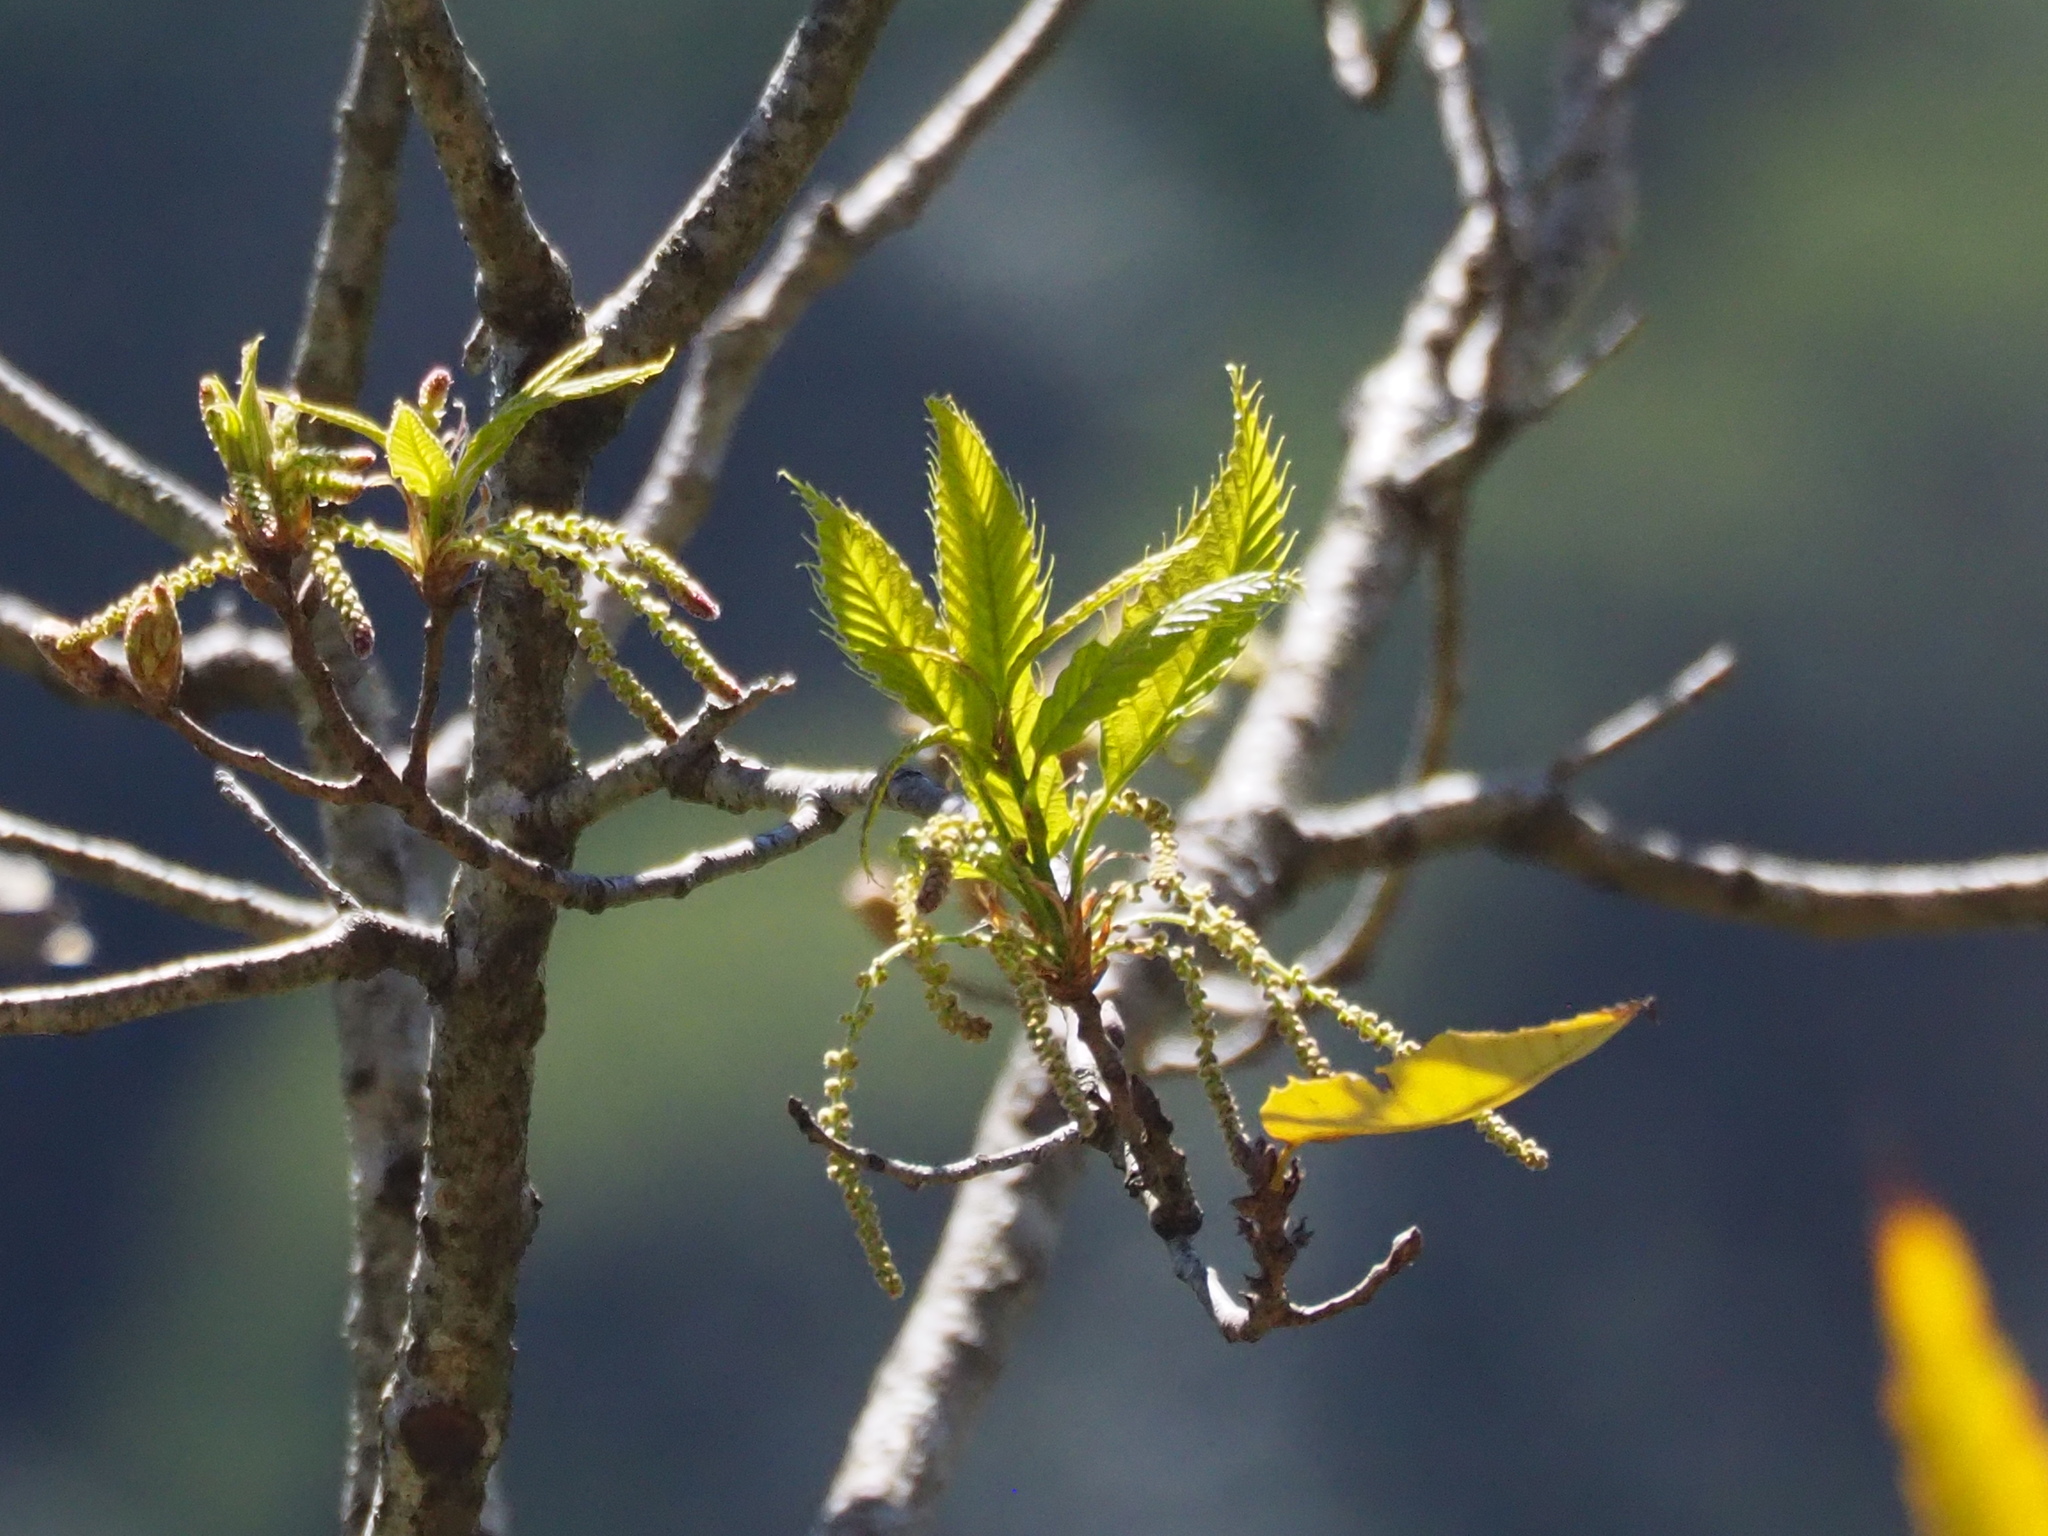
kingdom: Plantae
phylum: Tracheophyta
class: Magnoliopsida
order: Fagales
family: Fagaceae
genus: Quercus
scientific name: Quercus variabilis
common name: Chinese cork oak
